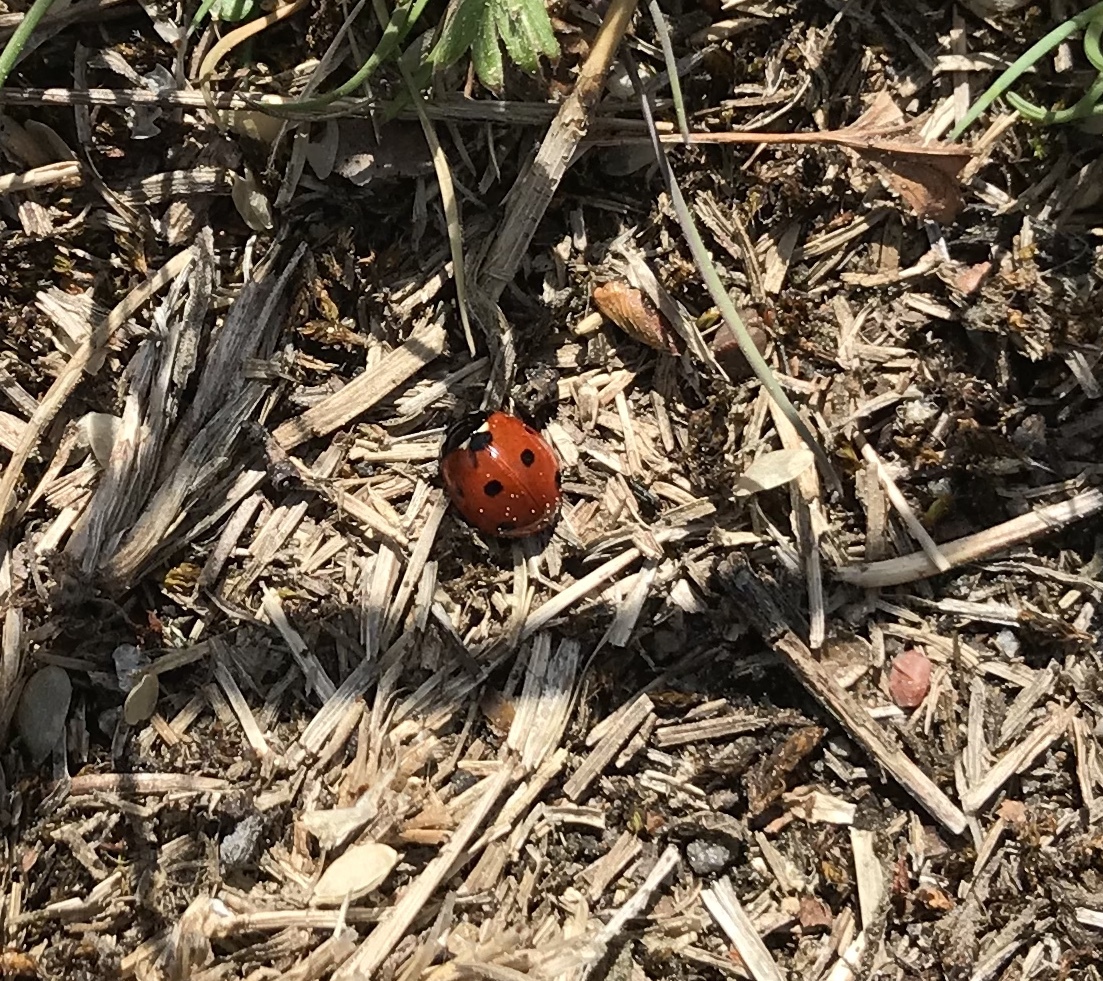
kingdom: Animalia
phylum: Arthropoda
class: Insecta
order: Coleoptera
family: Coccinellidae
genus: Coccinella
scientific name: Coccinella septempunctata
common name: Sevenspotted lady beetle
